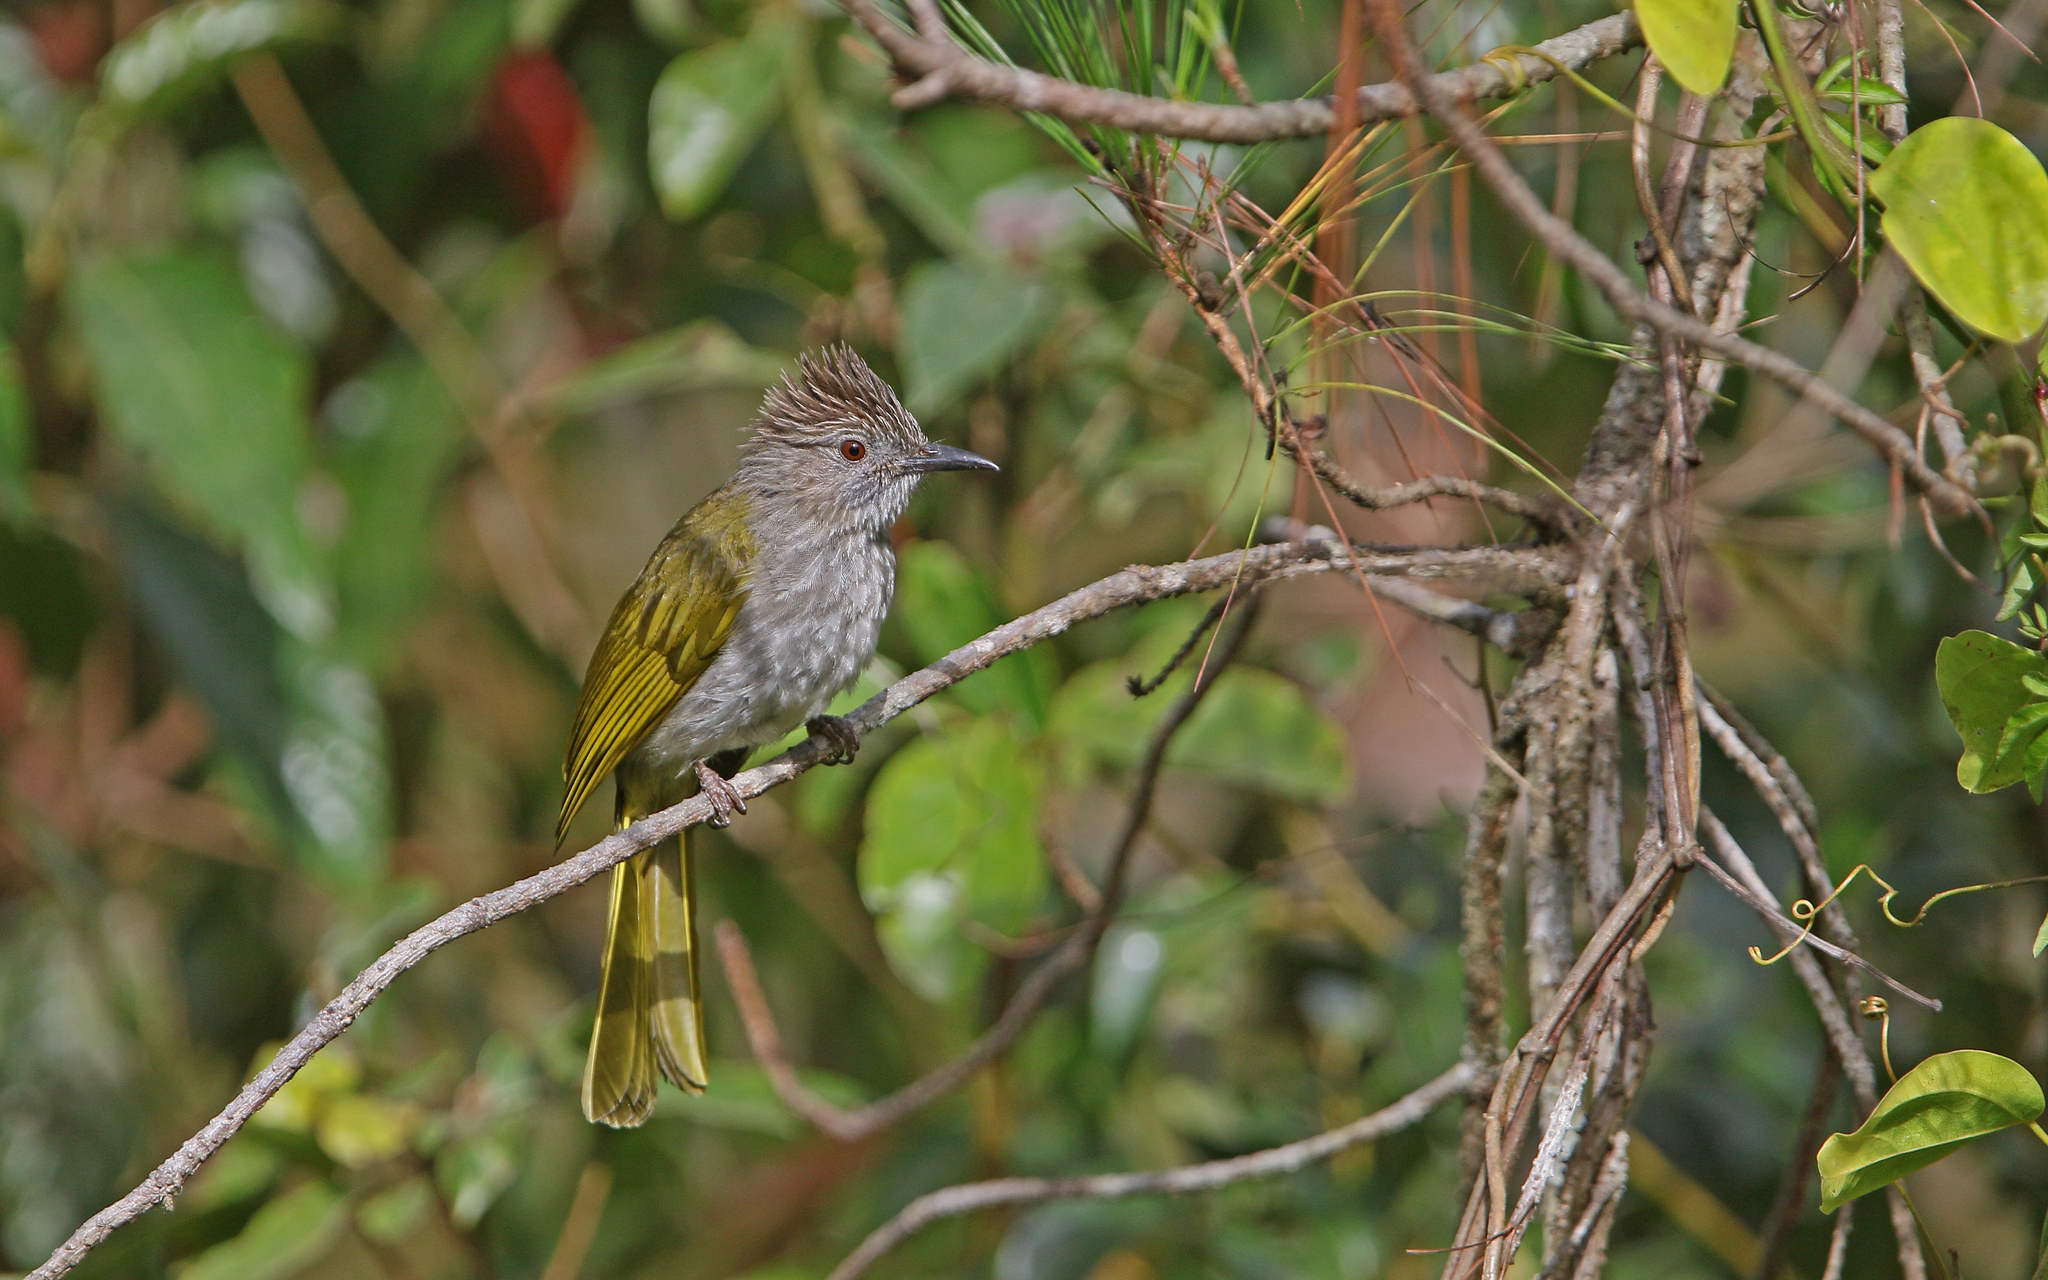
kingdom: Animalia
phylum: Chordata
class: Aves
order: Passeriformes
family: Pycnonotidae
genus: Ixos
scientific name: Ixos mcclellandii
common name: Mountain bulbul
